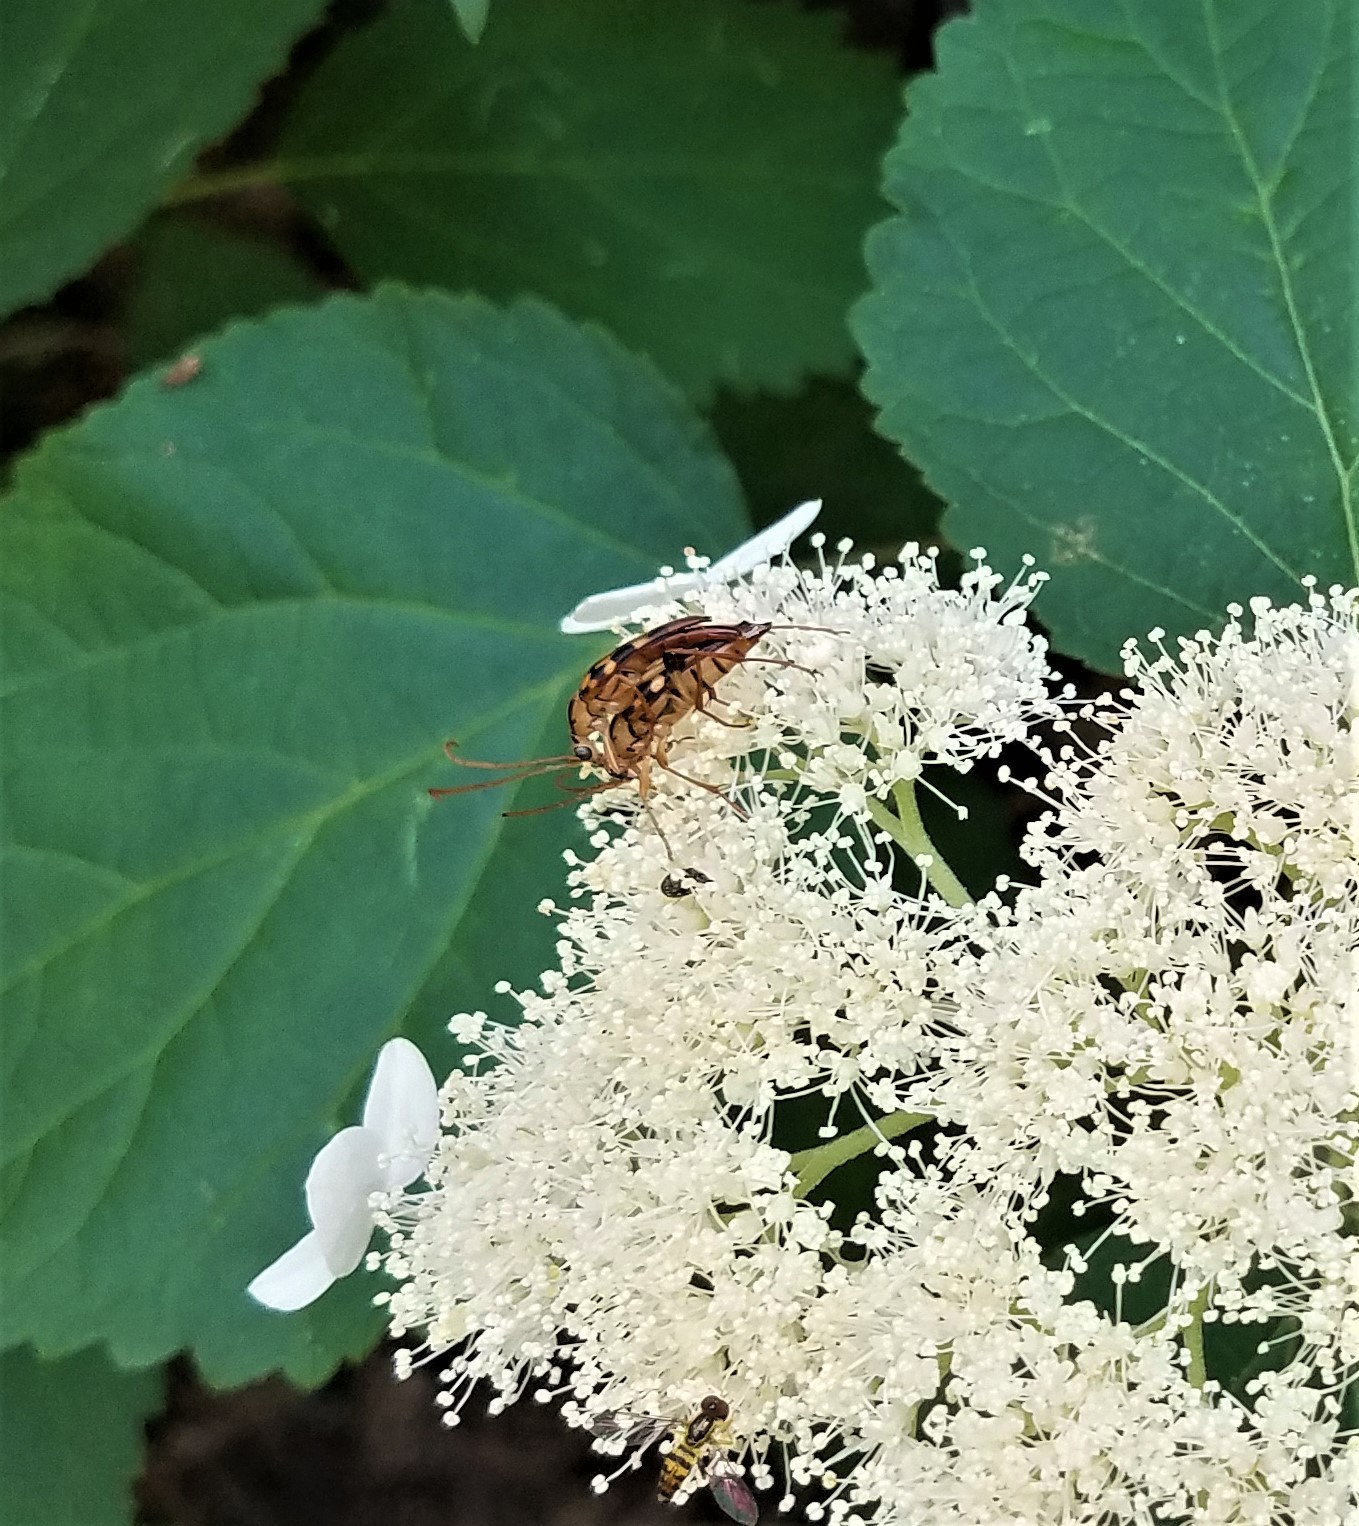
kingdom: Animalia
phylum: Arthropoda
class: Insecta
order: Coleoptera
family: Cerambycidae
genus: Strangalia
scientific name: Strangalia luteicornis
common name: Yellow-horned flower longhorn beetle
